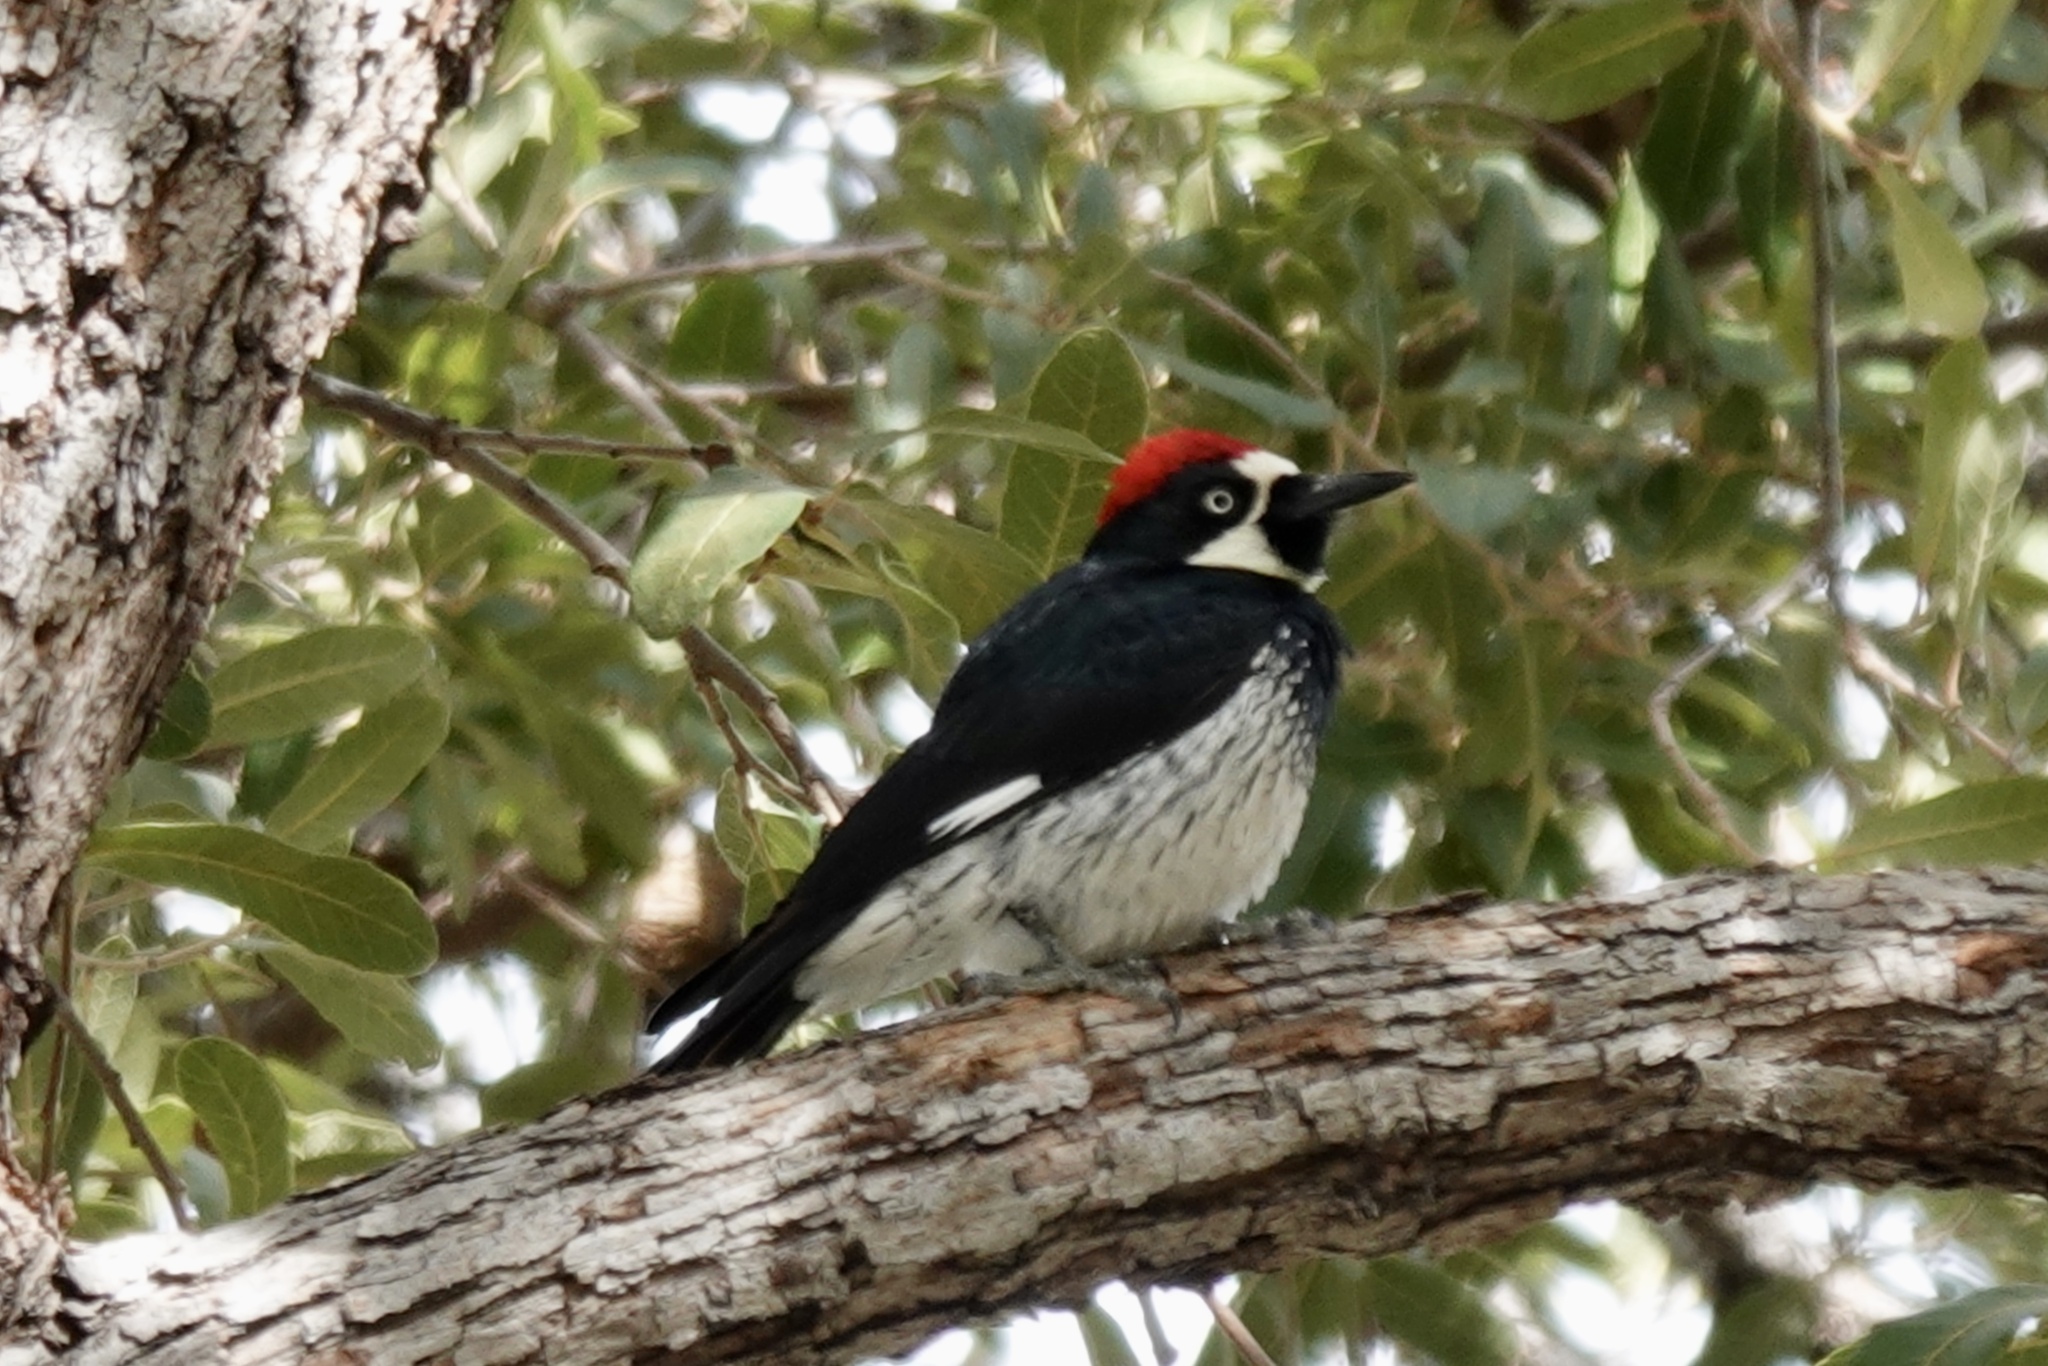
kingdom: Animalia
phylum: Chordata
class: Aves
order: Piciformes
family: Picidae
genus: Melanerpes
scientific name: Melanerpes formicivorus
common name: Acorn woodpecker
